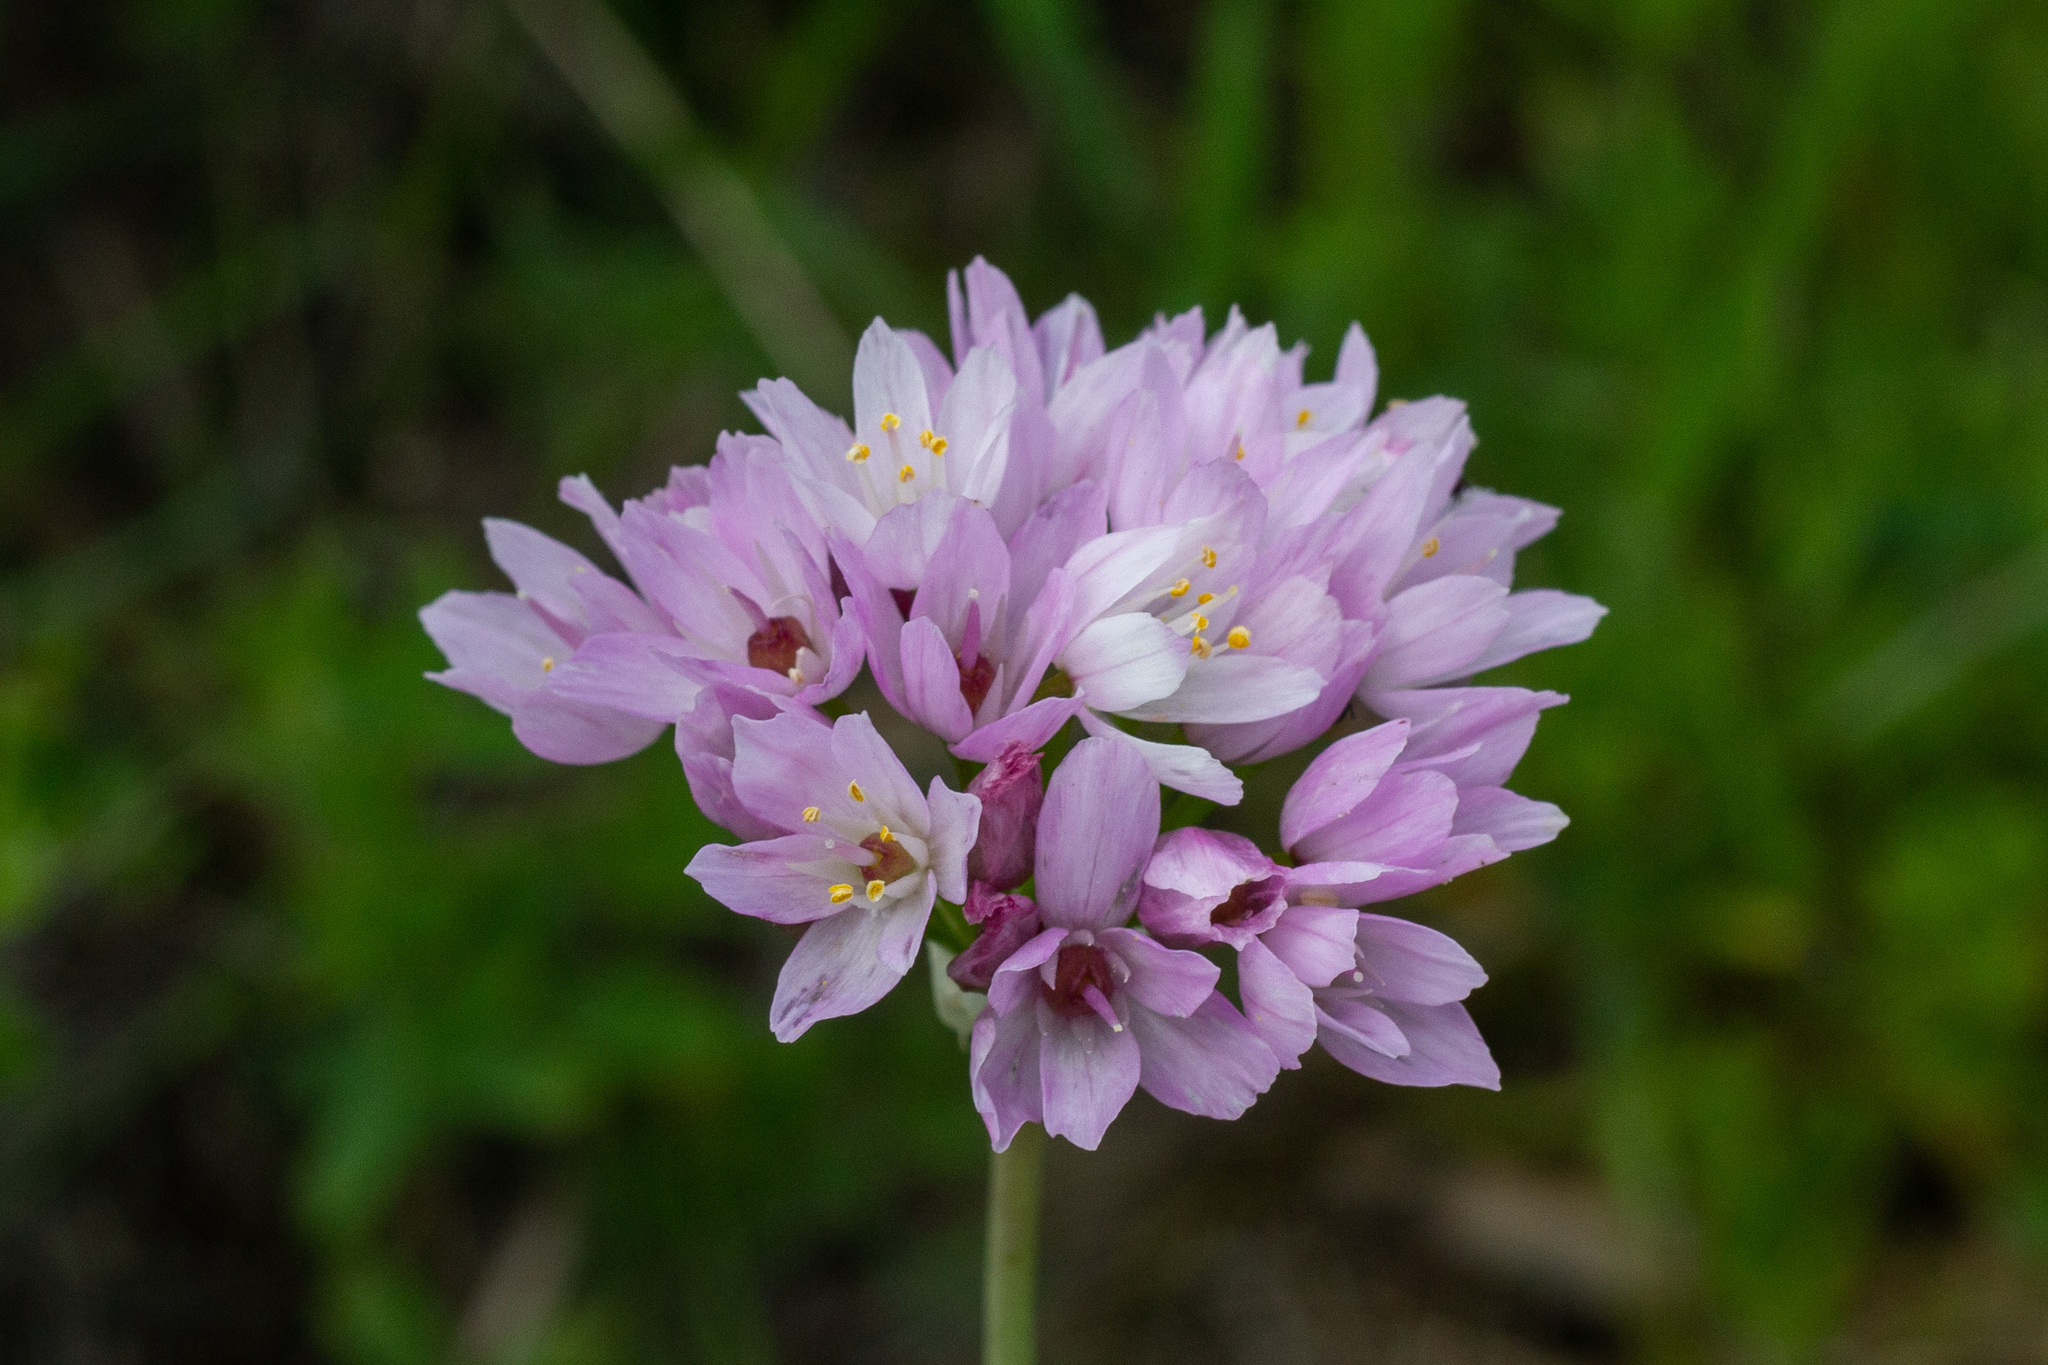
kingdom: Plantae
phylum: Tracheophyta
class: Liliopsida
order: Asparagales
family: Amaryllidaceae
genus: Allium
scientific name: Allium roseum
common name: Rosy garlic
